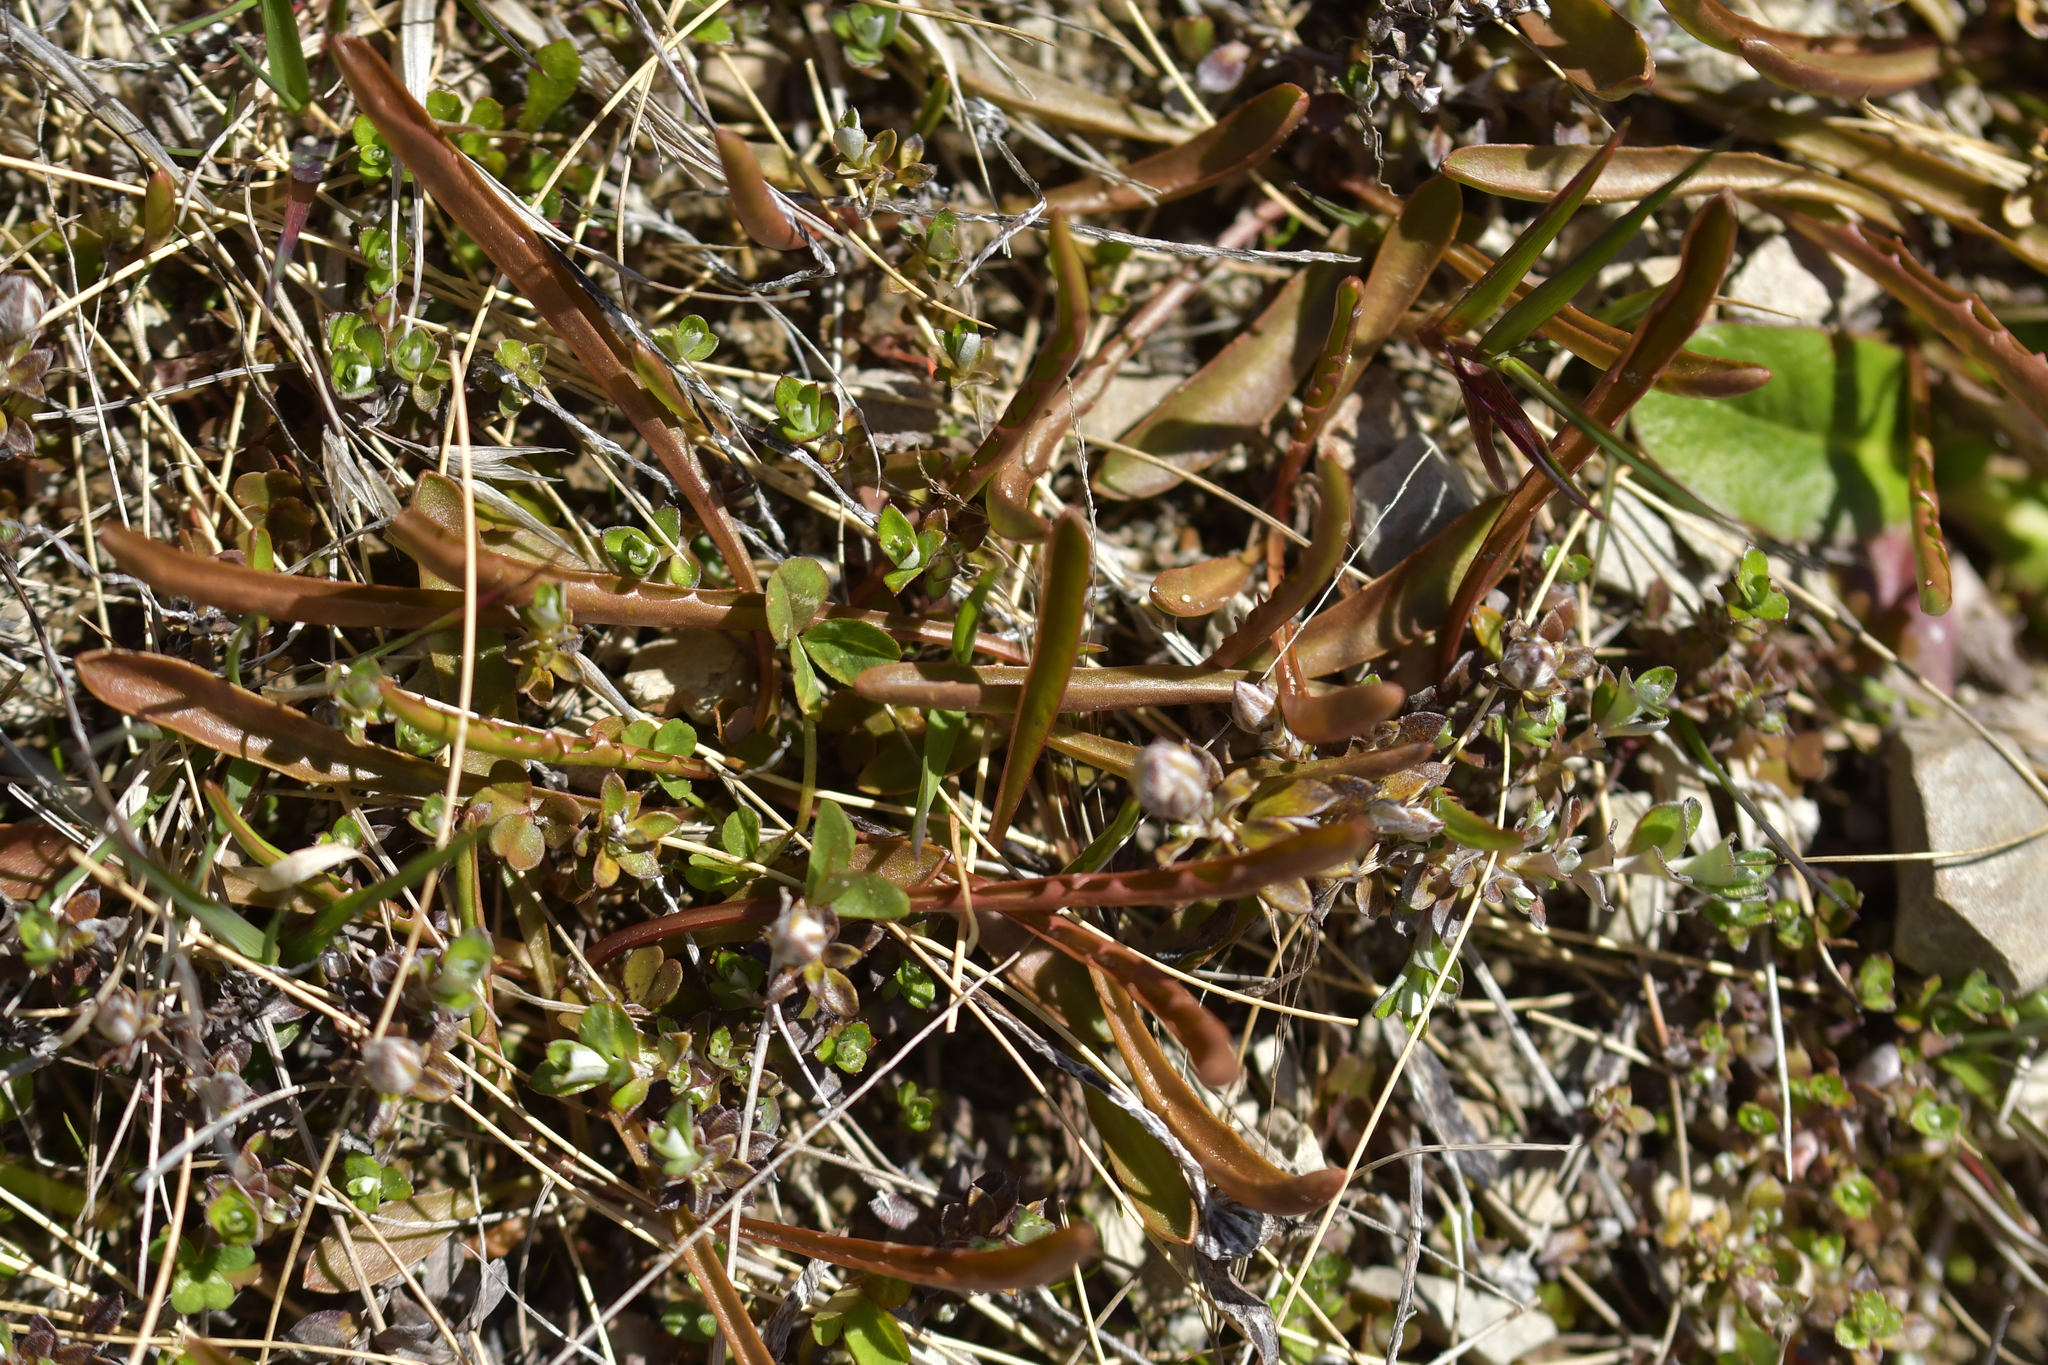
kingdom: Plantae
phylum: Tracheophyta
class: Magnoliopsida
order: Asterales
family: Asteraceae
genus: Microseris
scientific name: Microseris scapigera
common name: Yam daisy
